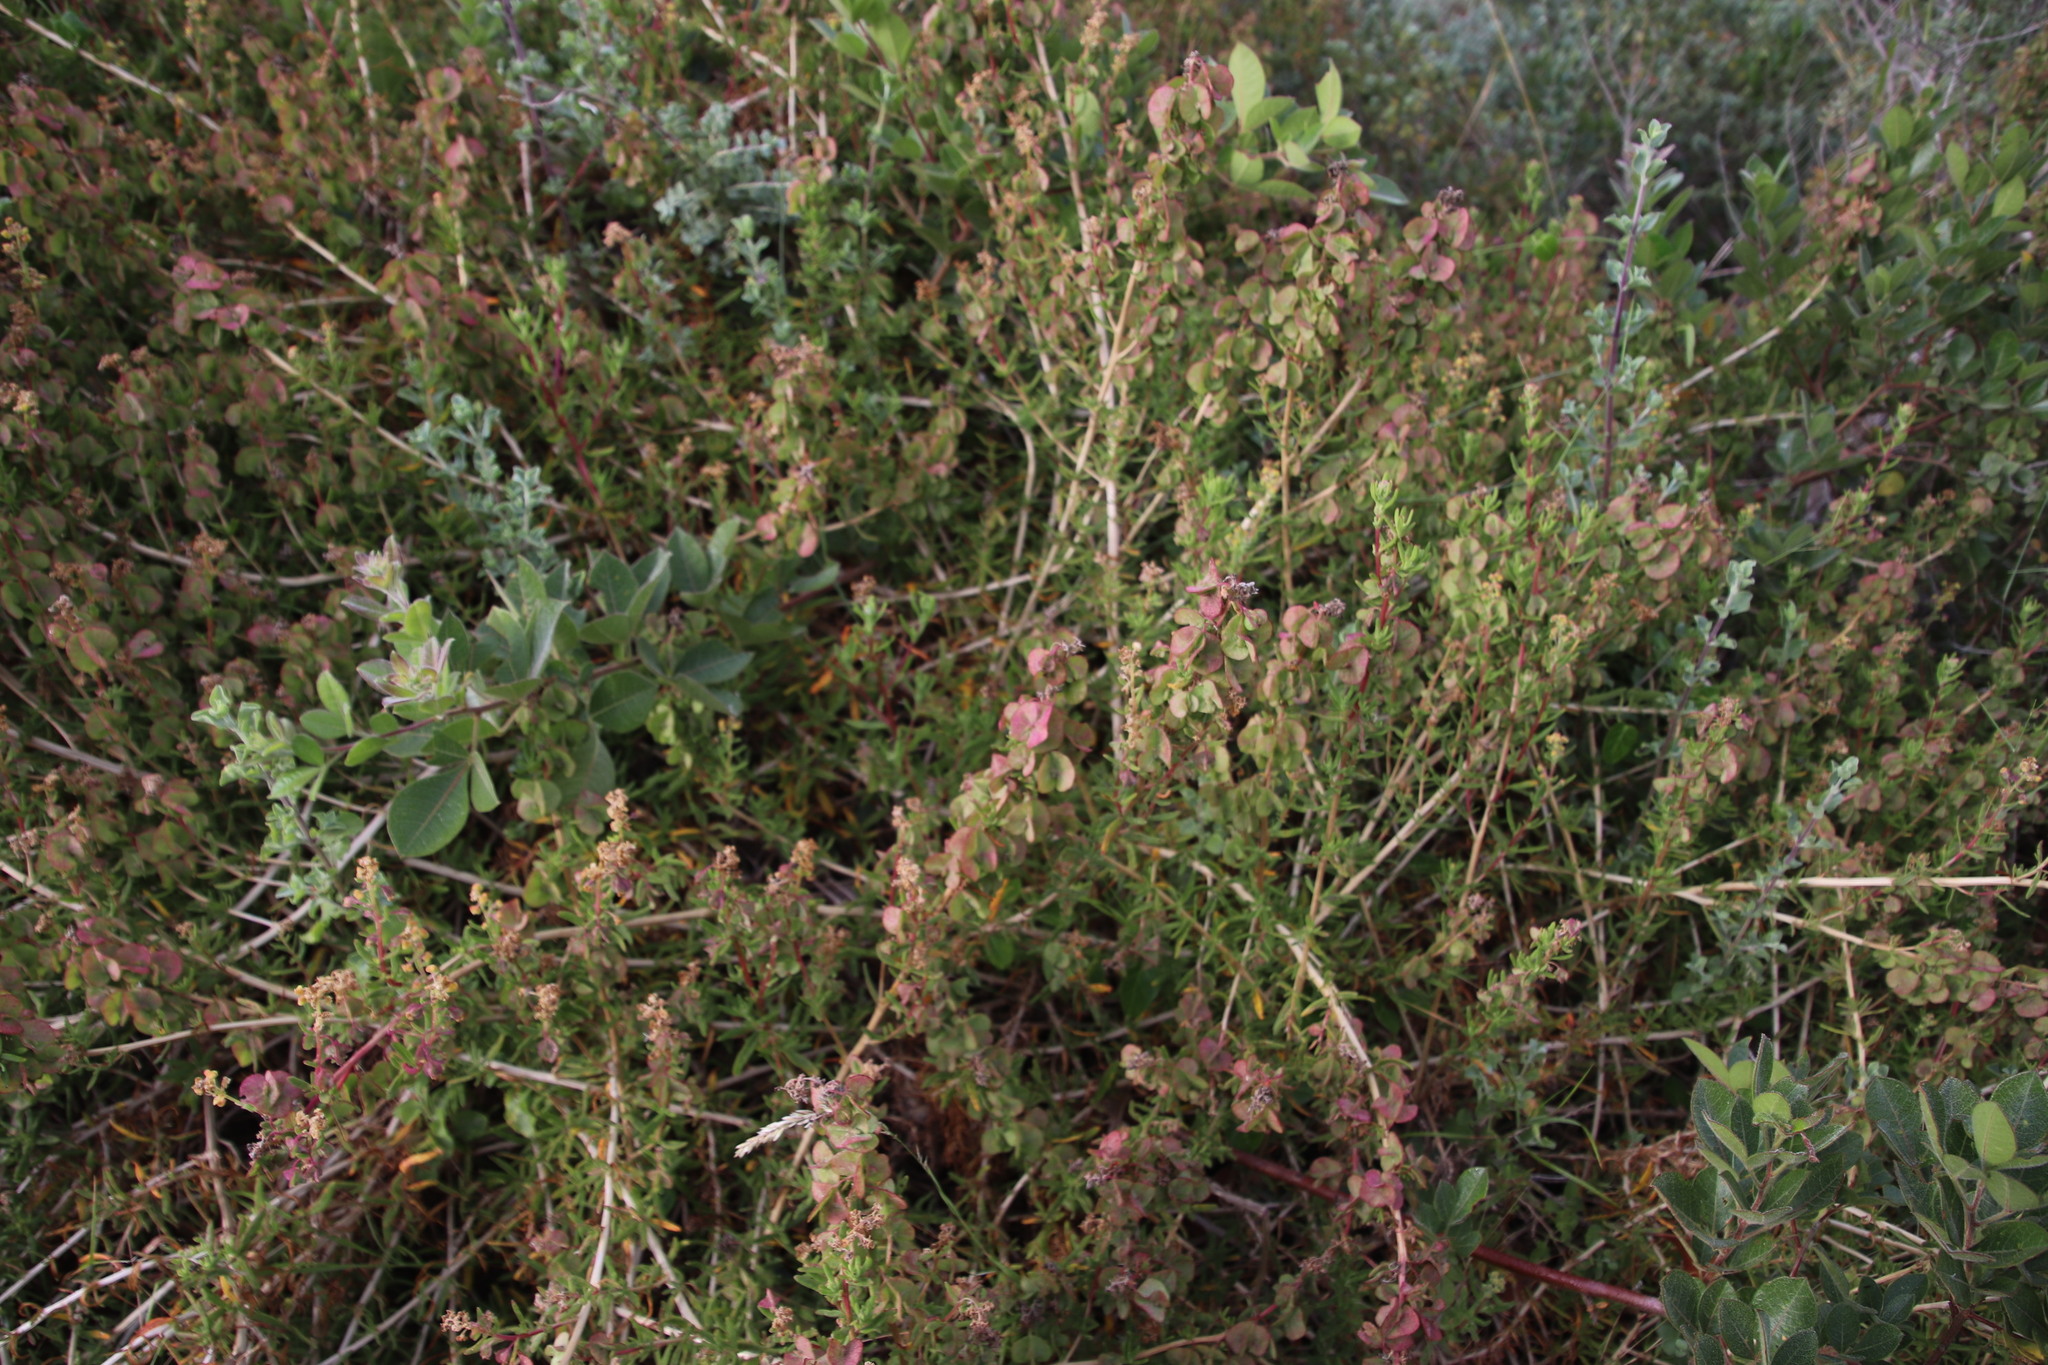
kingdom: Plantae
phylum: Tracheophyta
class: Magnoliopsida
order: Caryophyllales
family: Aizoaceae
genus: Tetragonia
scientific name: Tetragonia fruticosa
